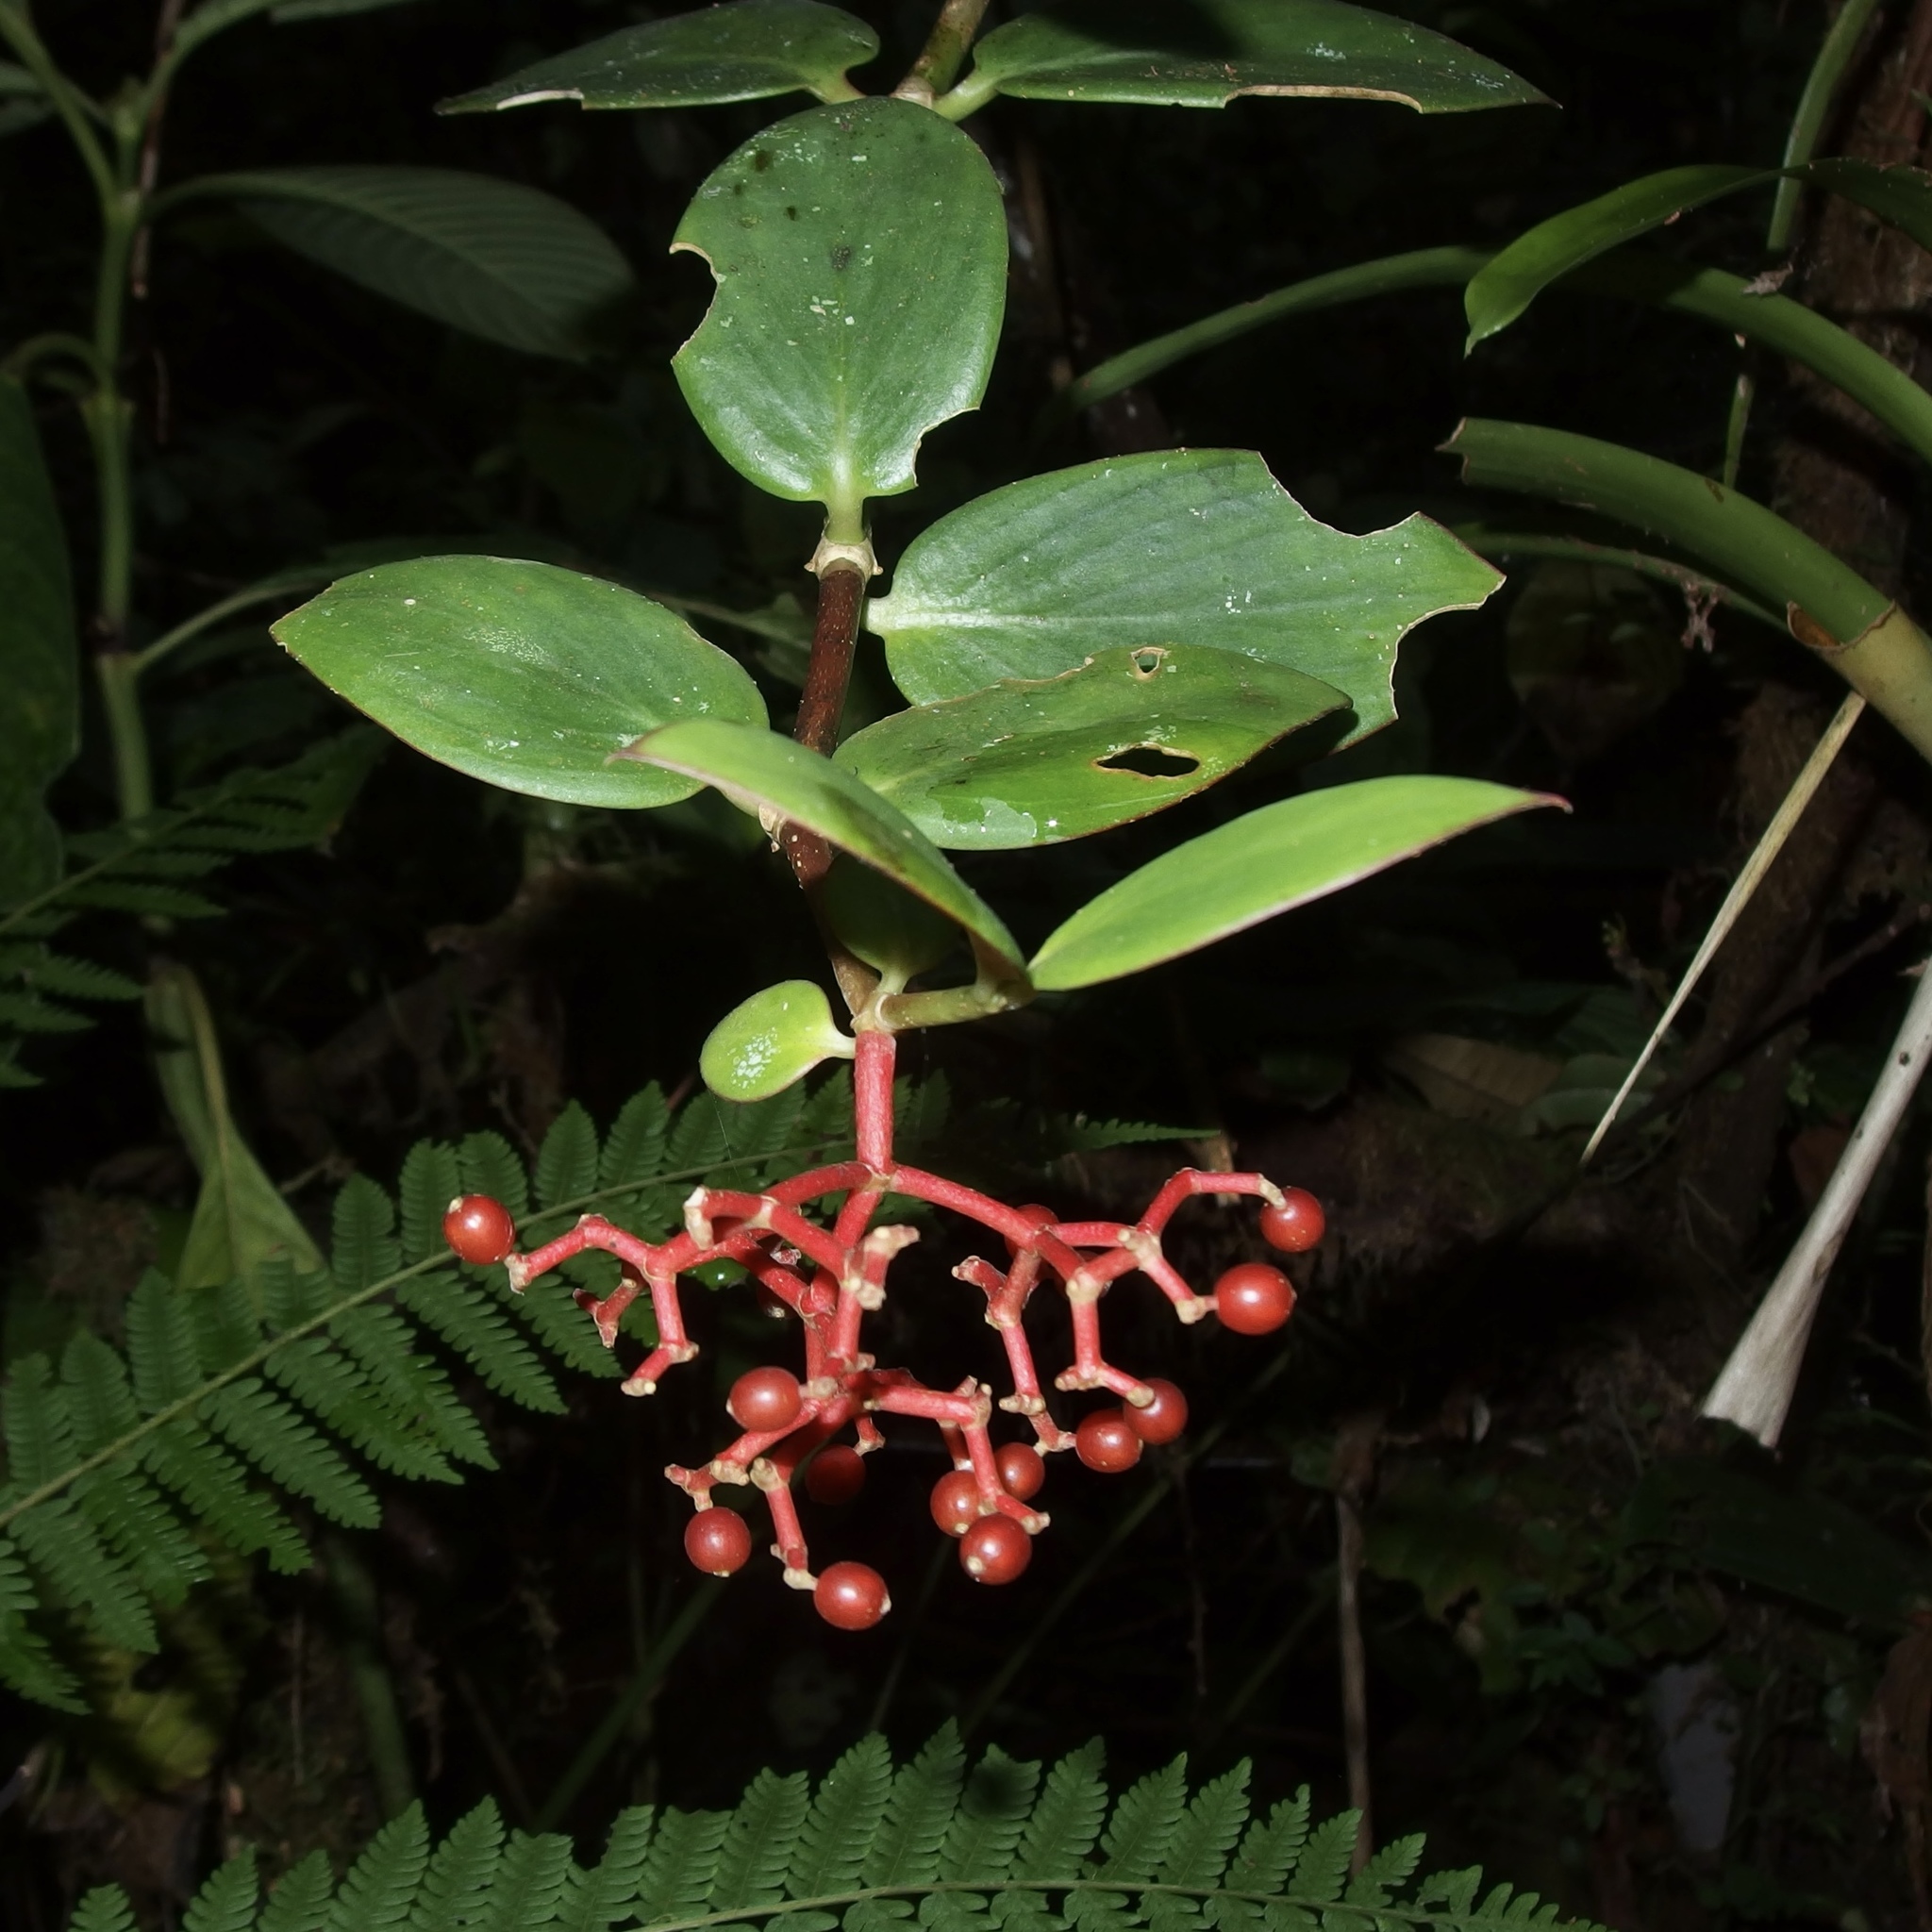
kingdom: Plantae
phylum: Tracheophyta
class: Magnoliopsida
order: Gentianales
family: Rubiaceae
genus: Notopleura
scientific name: Notopleura epiphytica
